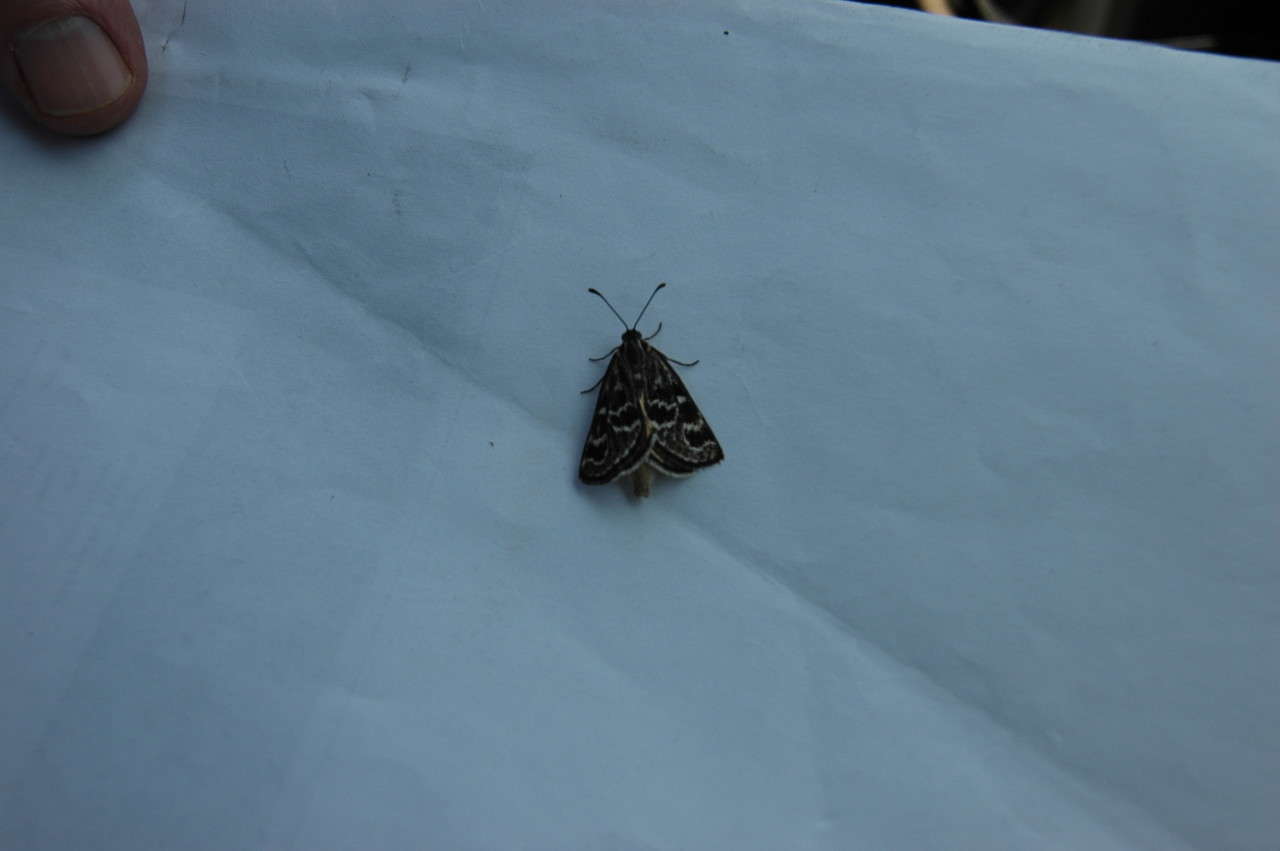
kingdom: Animalia
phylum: Arthropoda
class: Insecta
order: Lepidoptera
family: Castniidae
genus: Synemon
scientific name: Synemon plana
